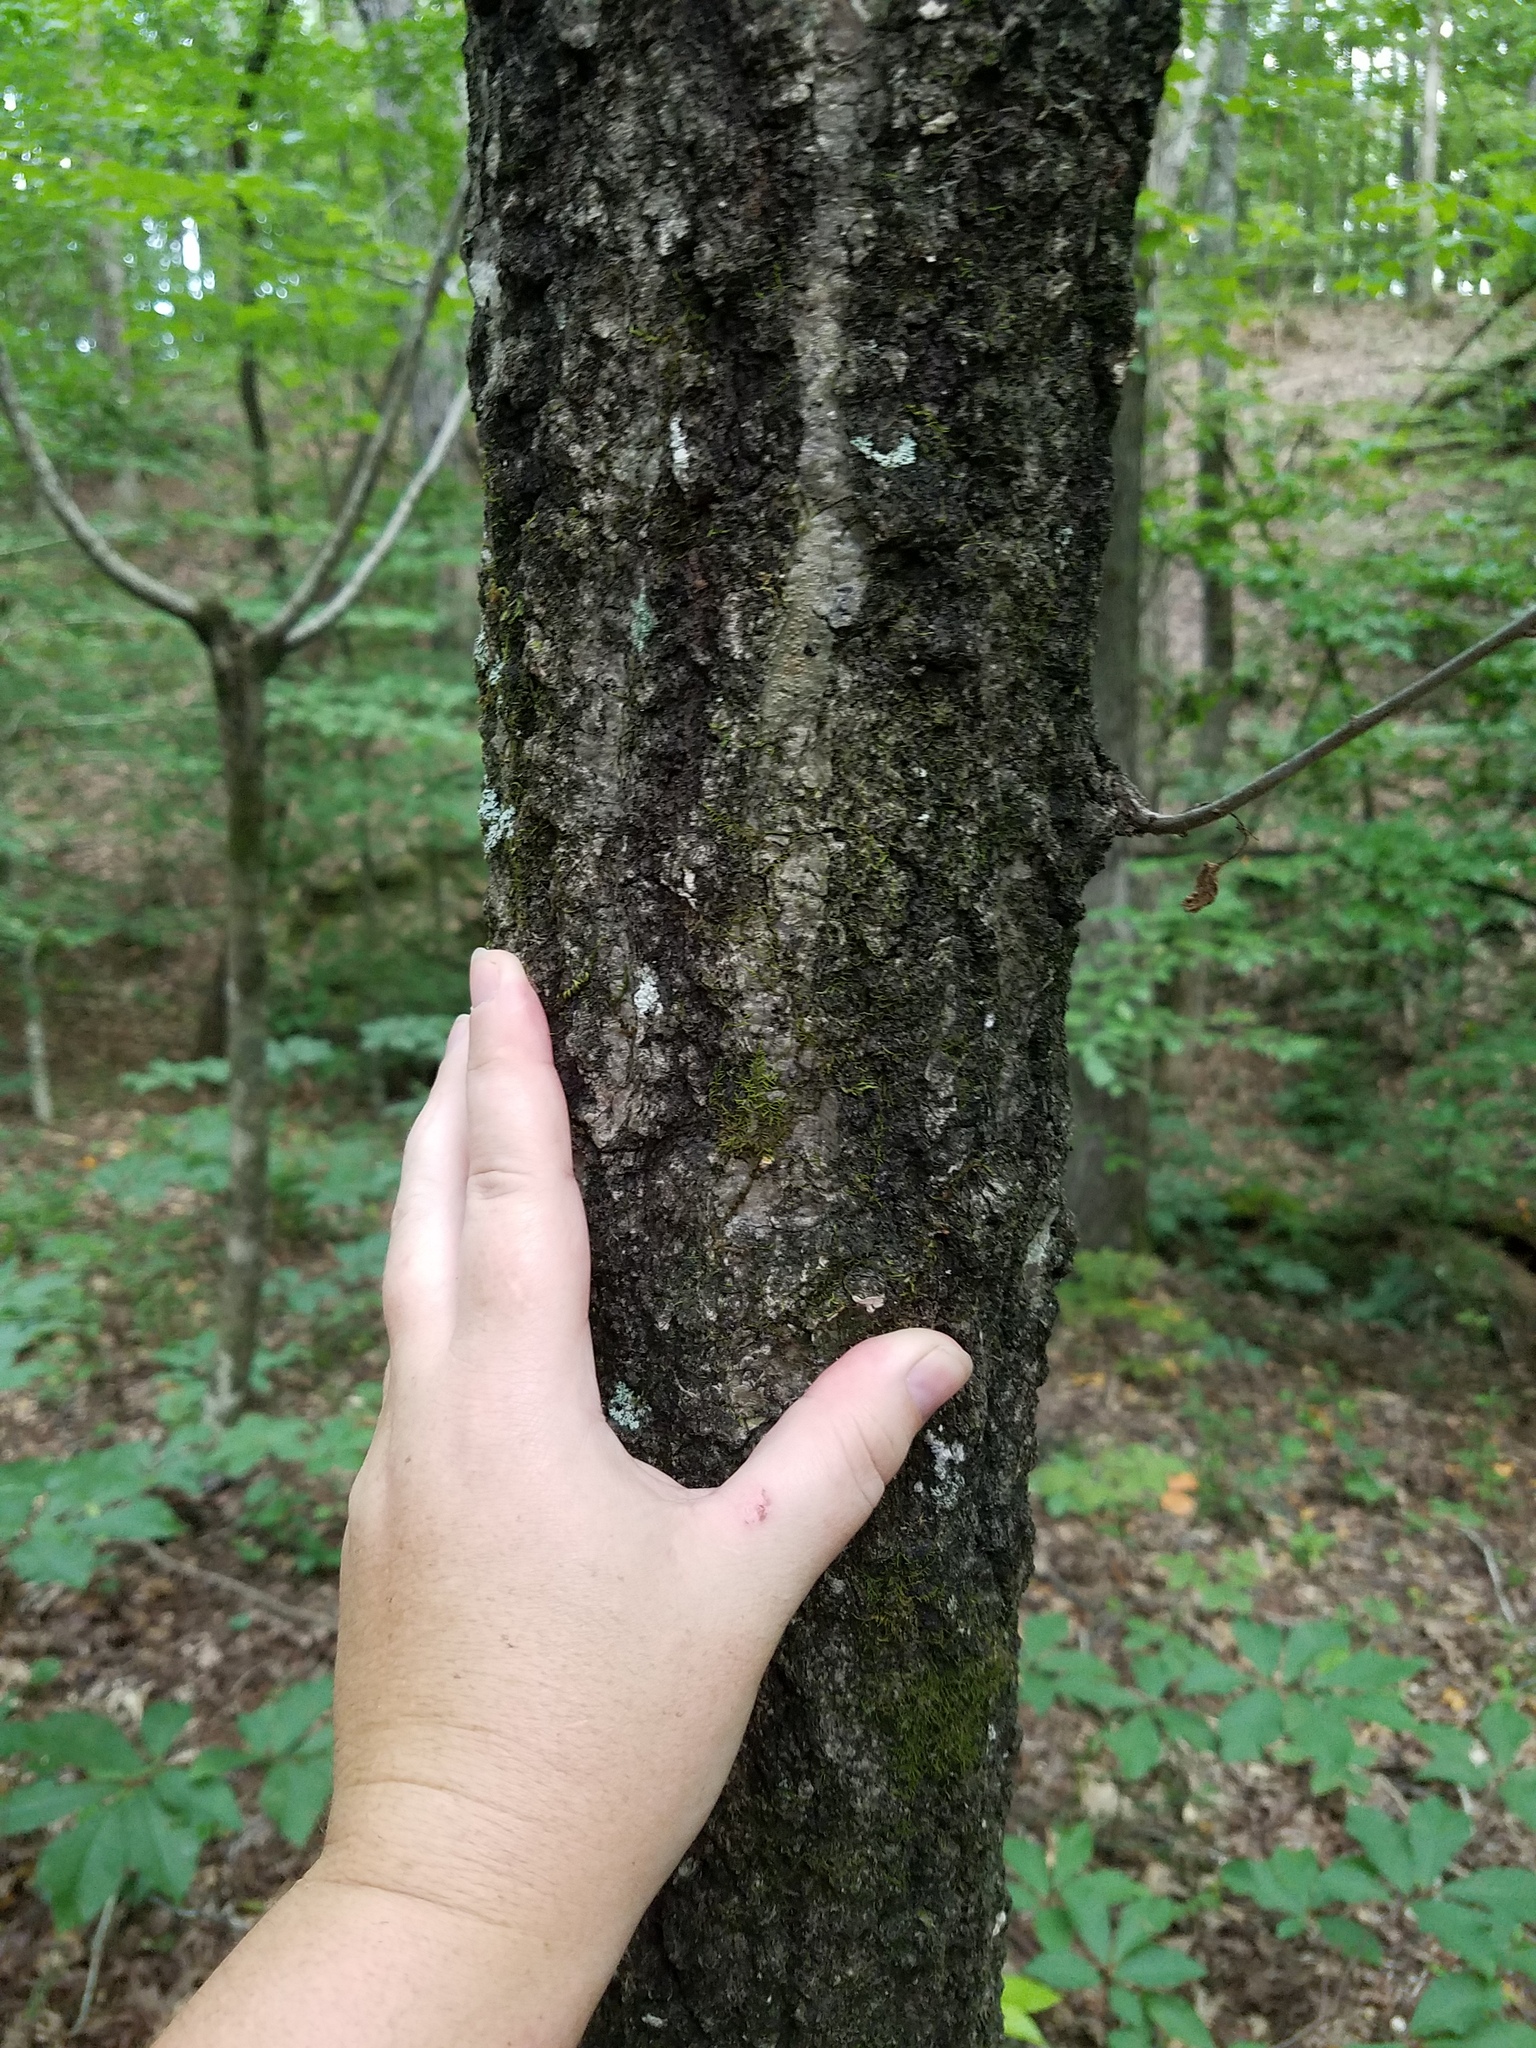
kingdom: Plantae
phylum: Tracheophyta
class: Magnoliopsida
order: Fagales
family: Fagaceae
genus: Quercus
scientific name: Quercus rubra
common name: Red oak
